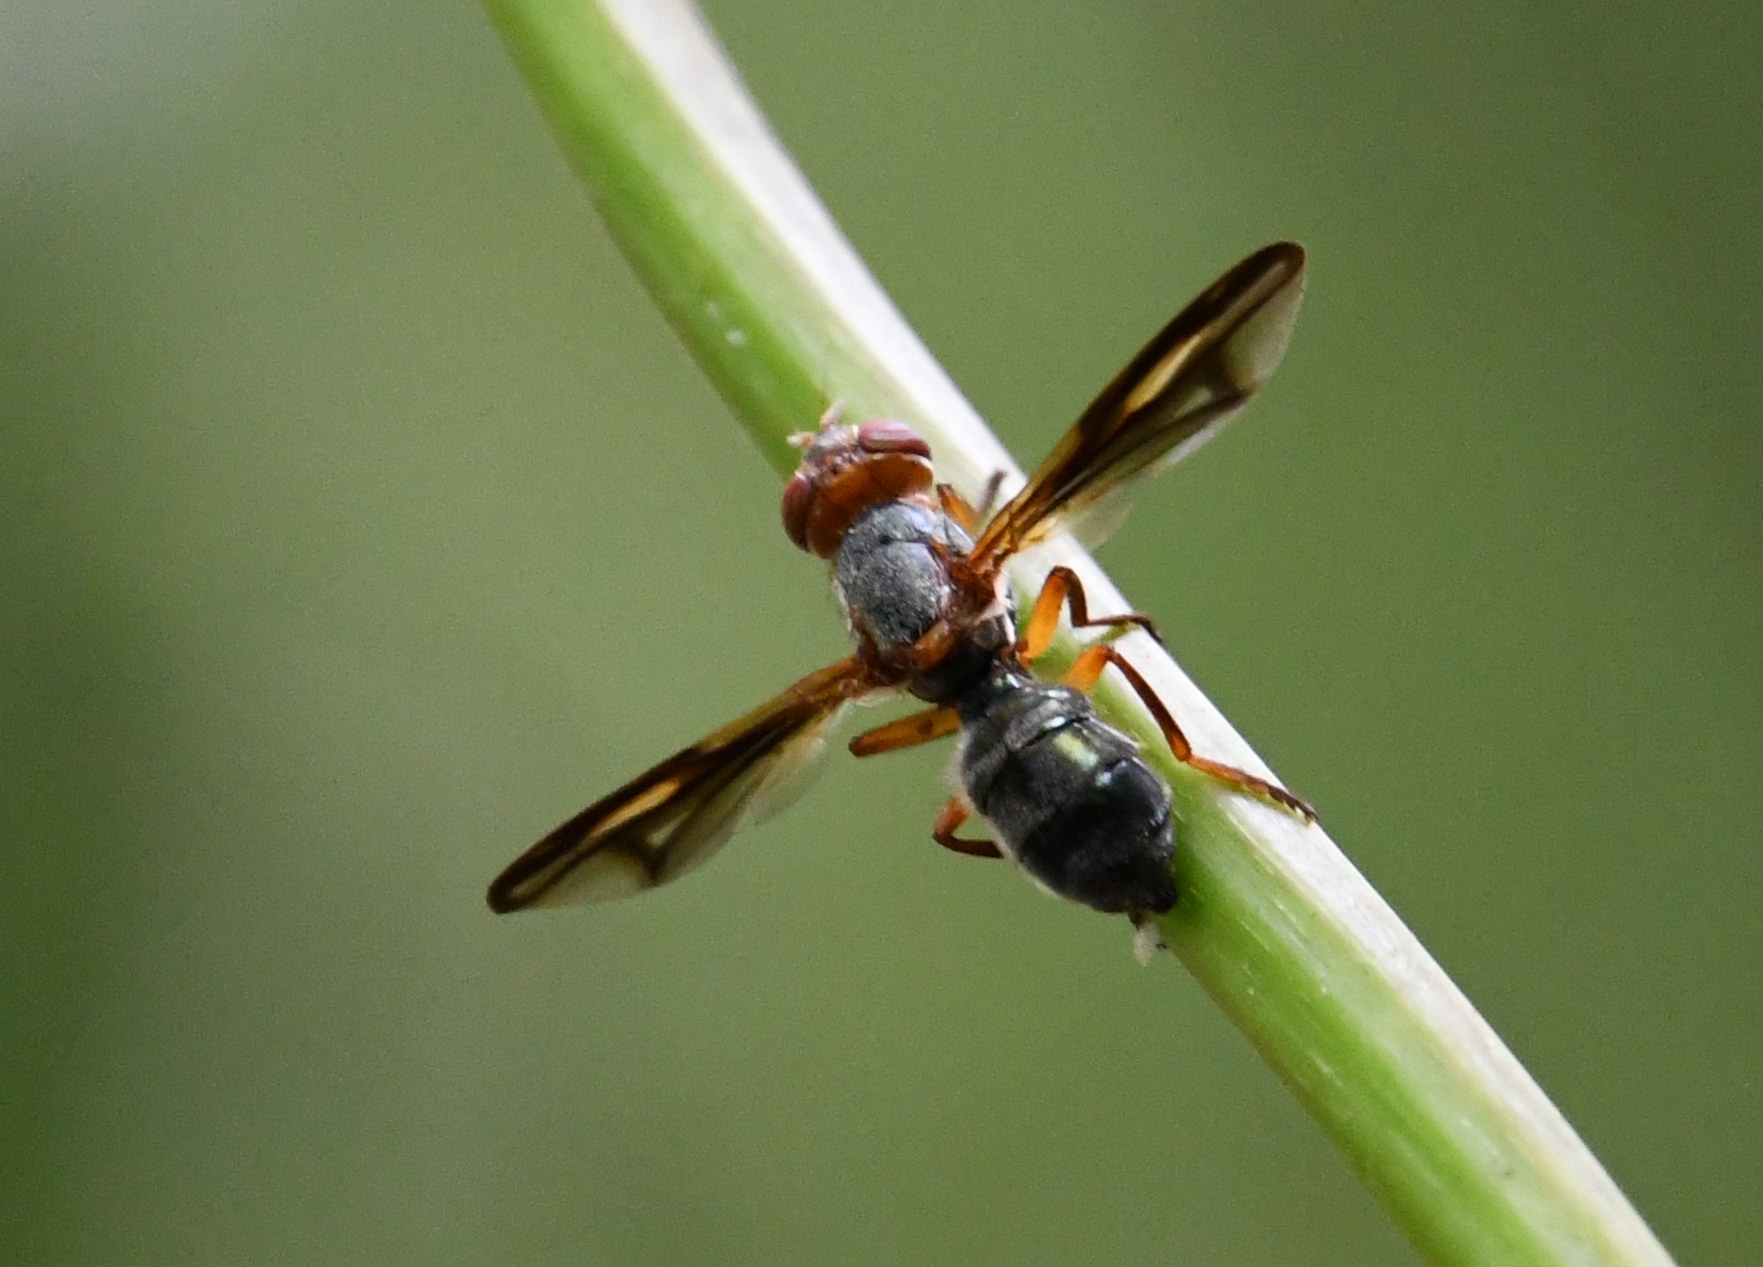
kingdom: Animalia
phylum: Arthropoda
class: Insecta
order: Diptera
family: Platystomatidae
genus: Senopterina
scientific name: Senopterina varia
